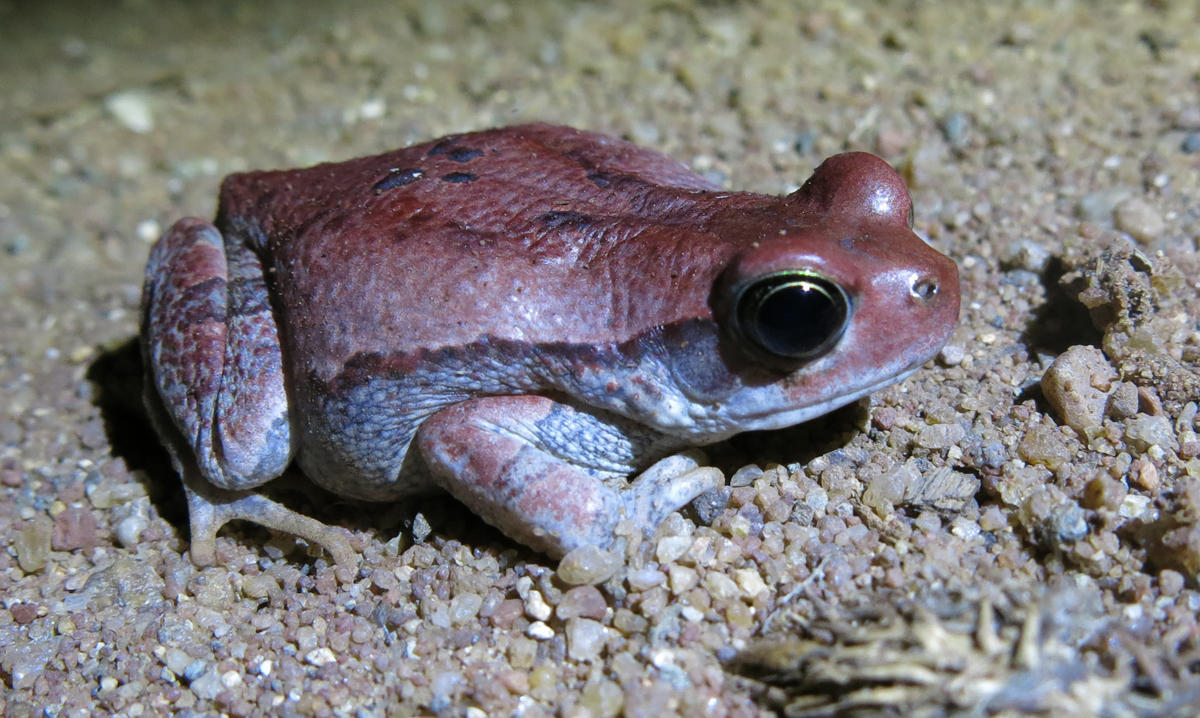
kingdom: Animalia
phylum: Chordata
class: Amphibia
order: Anura
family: Bufonidae
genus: Schismaderma
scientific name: Schismaderma carens
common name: African split-skin toad
